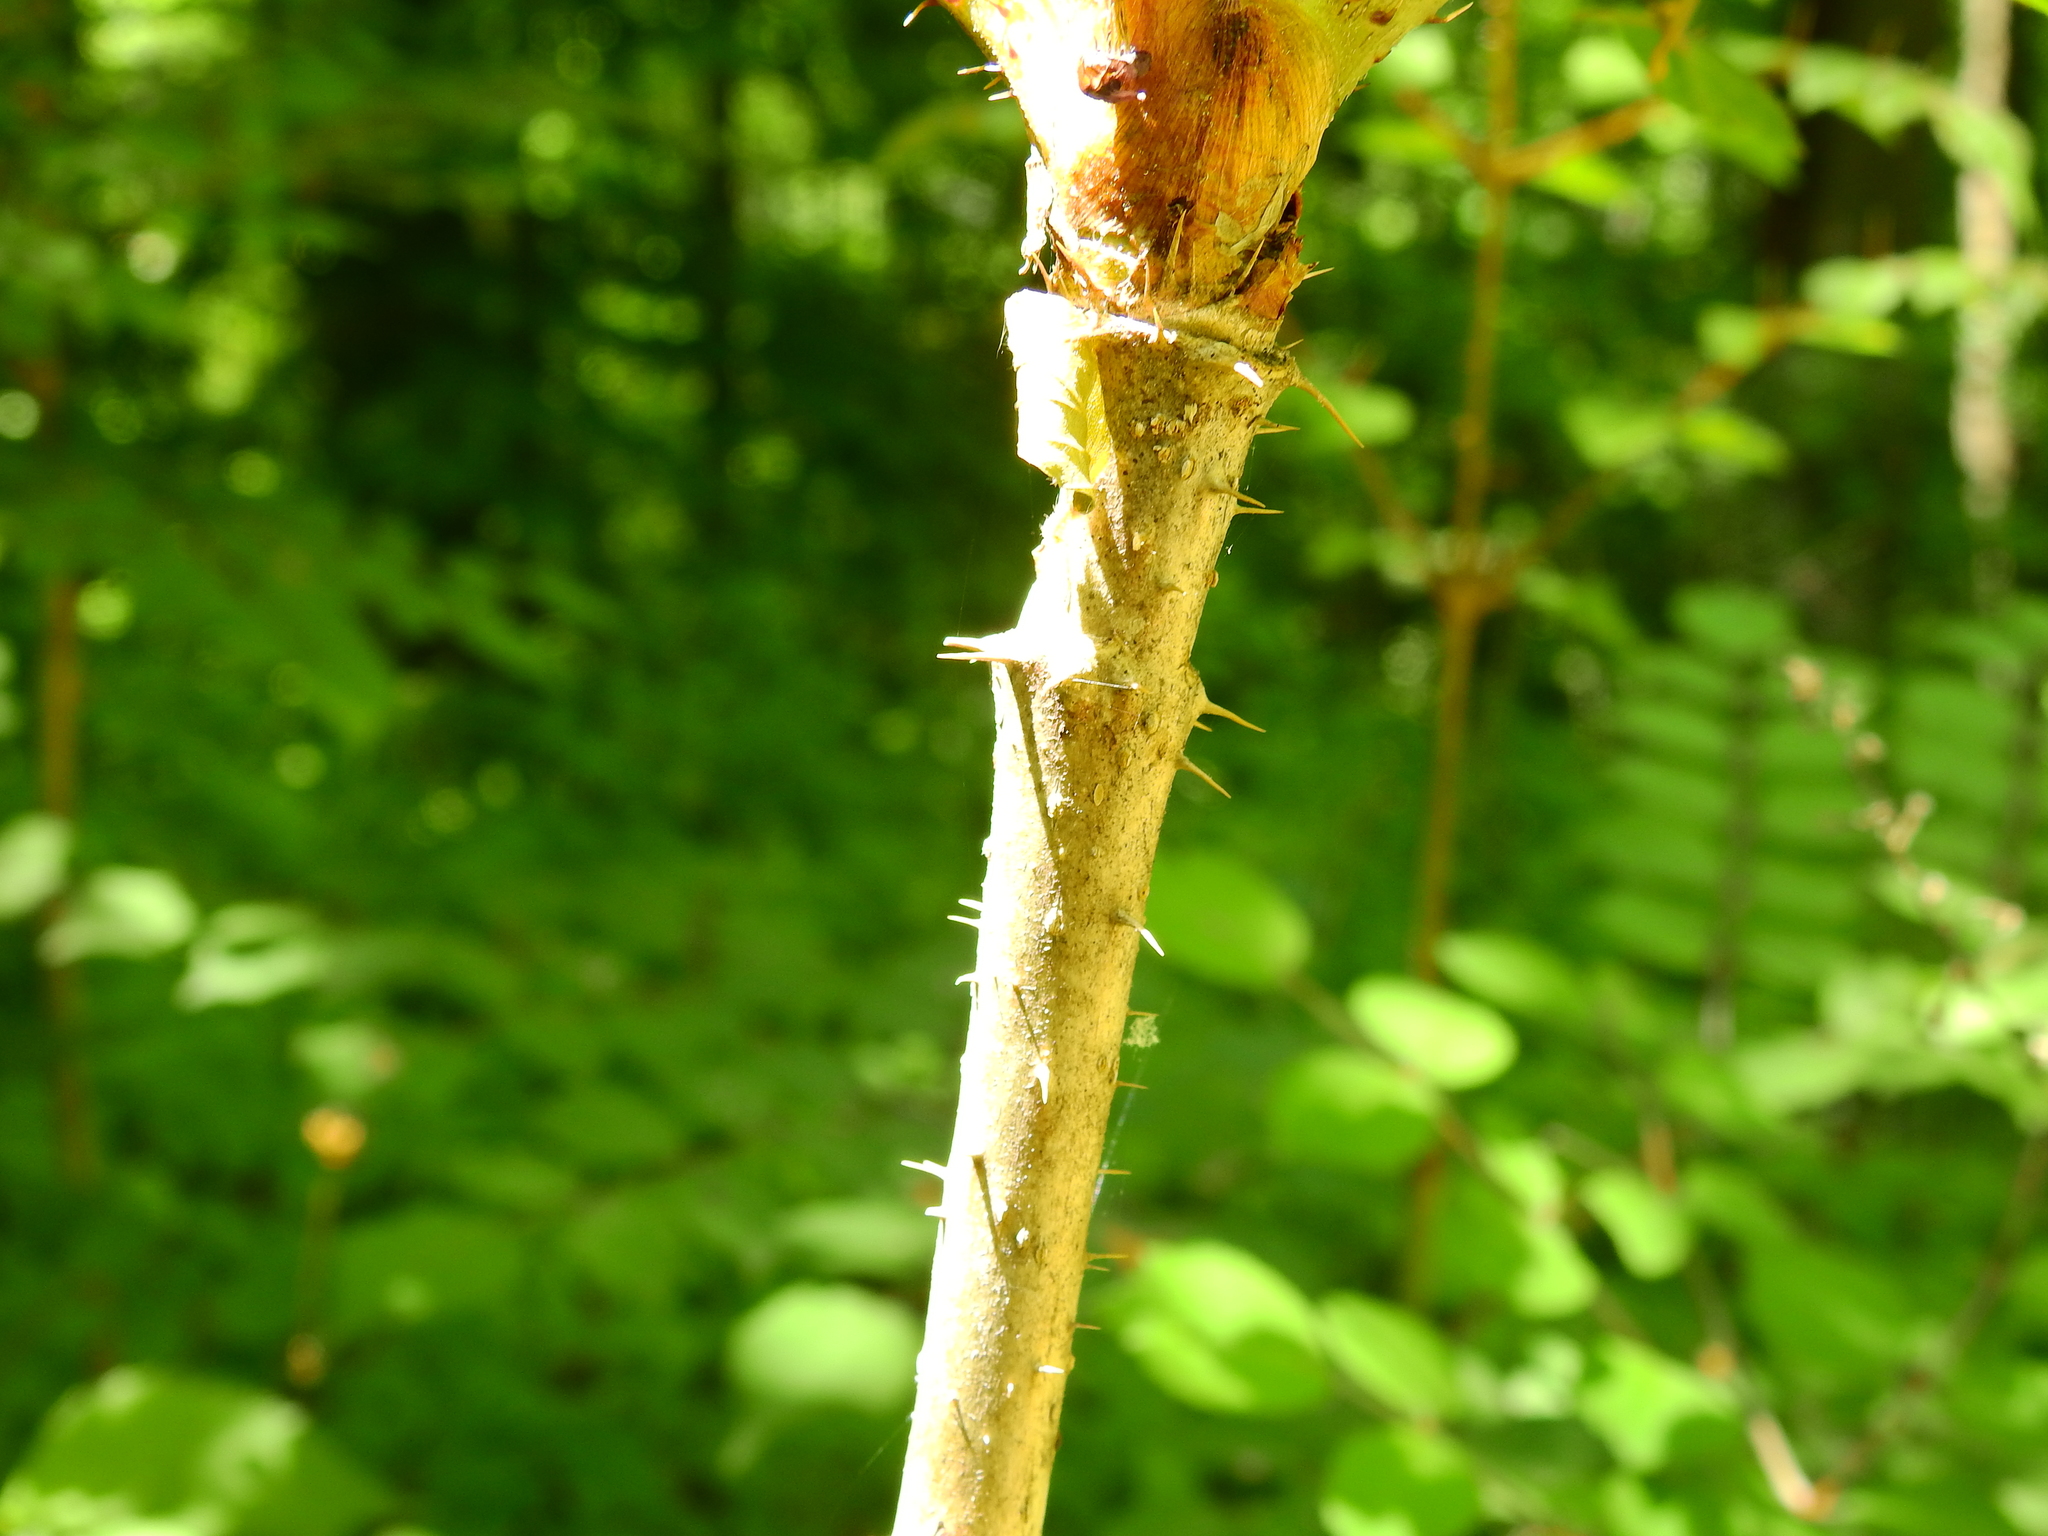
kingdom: Plantae
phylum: Tracheophyta
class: Magnoliopsida
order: Apiales
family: Araliaceae
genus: Aralia
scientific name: Aralia spinosa
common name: Hercules'-club
